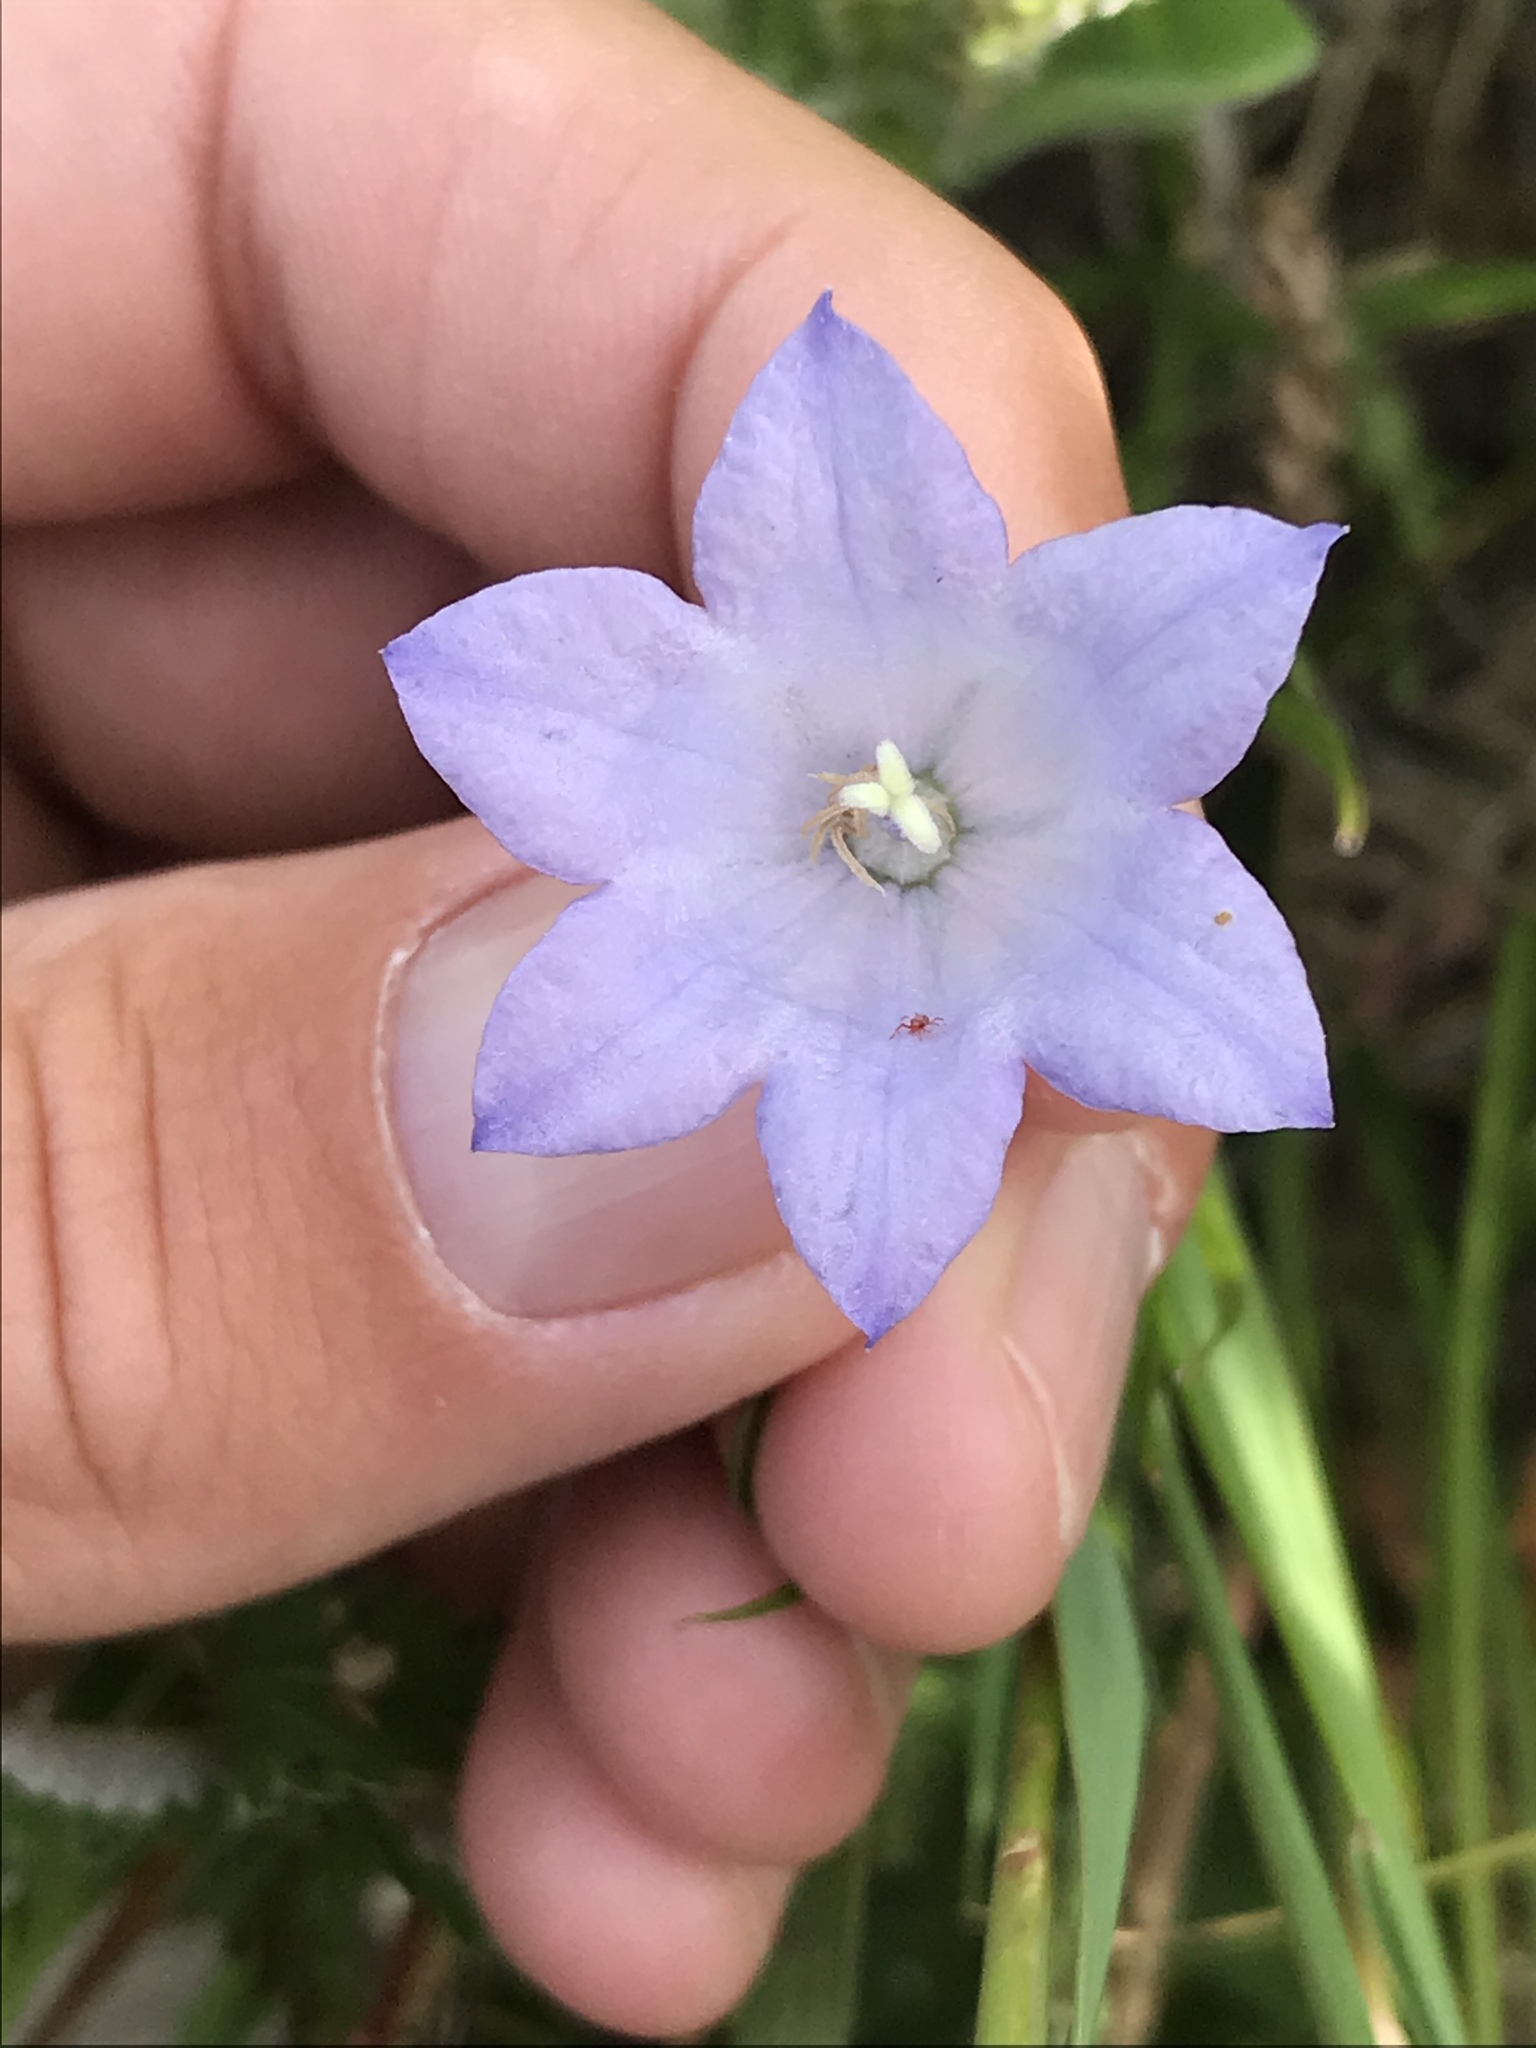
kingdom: Plantae
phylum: Tracheophyta
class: Magnoliopsida
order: Asterales
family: Campanulaceae
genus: Campanula
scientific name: Campanula petiolata
